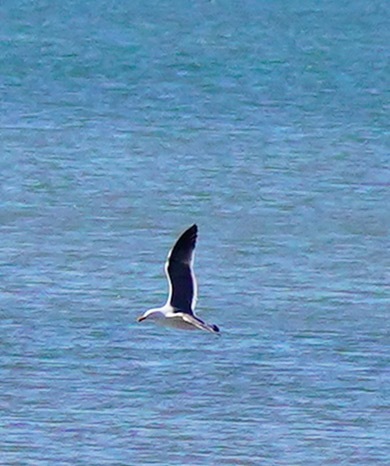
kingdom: Animalia
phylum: Chordata
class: Aves
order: Charadriiformes
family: Laridae
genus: Larus
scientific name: Larus occidentalis
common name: Western gull
